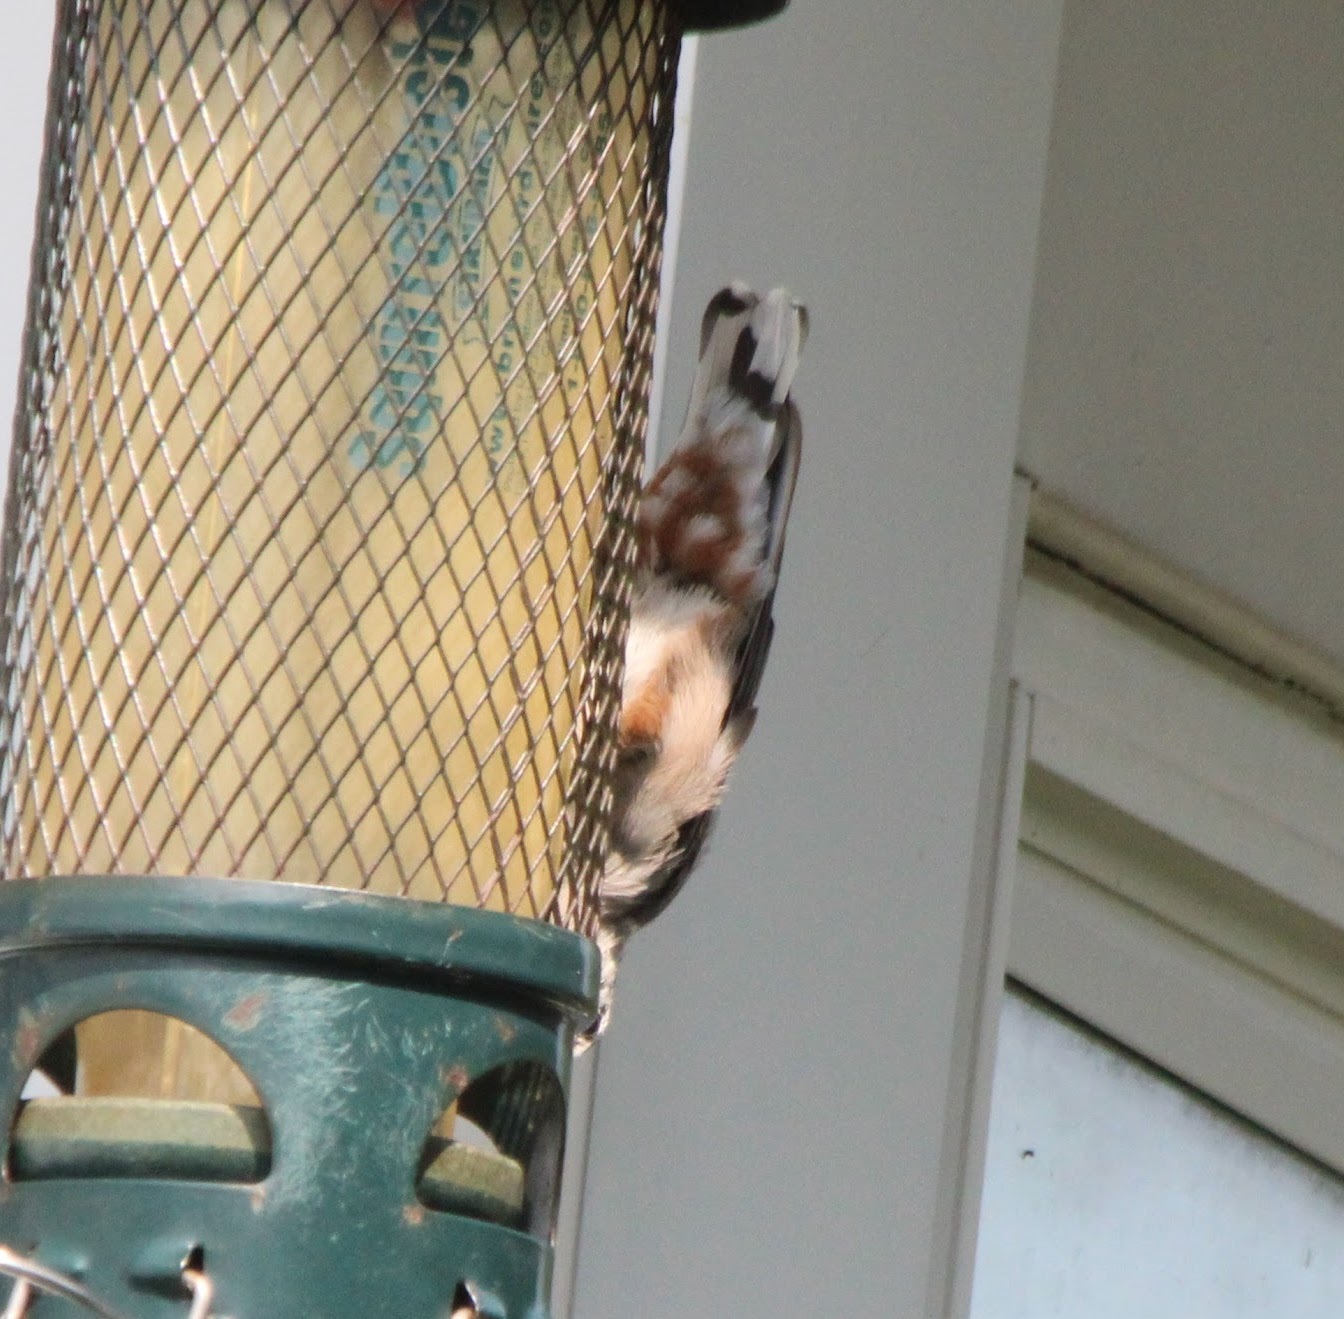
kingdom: Animalia
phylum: Chordata
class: Aves
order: Passeriformes
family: Sittidae
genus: Sitta
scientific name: Sitta carolinensis
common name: White-breasted nuthatch
